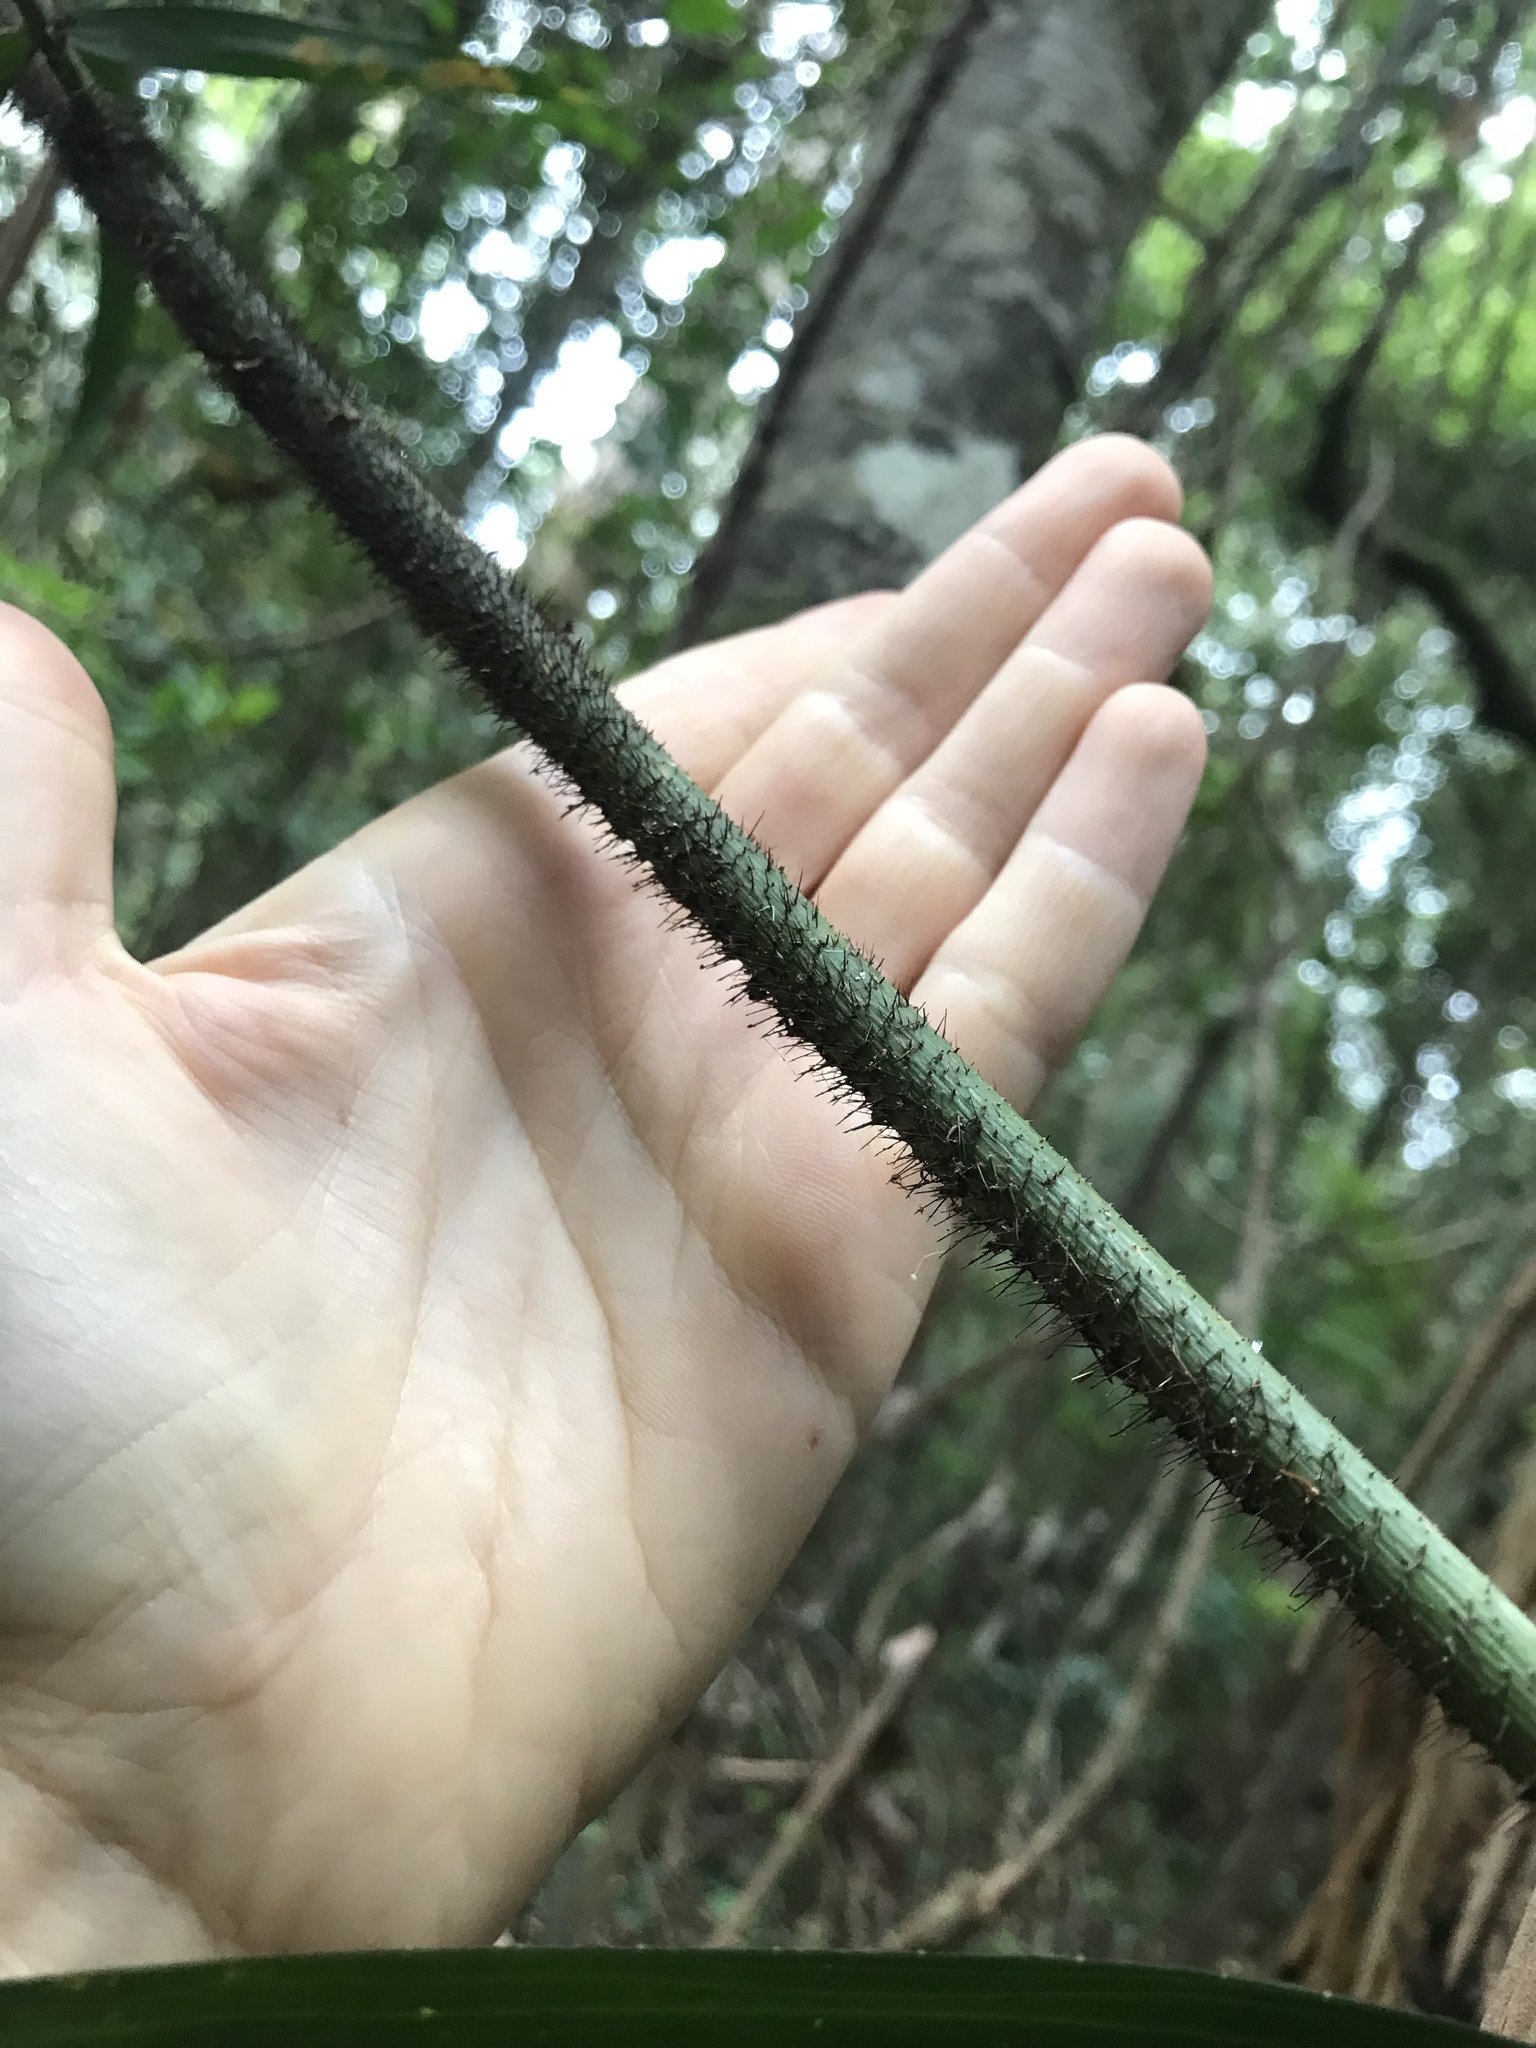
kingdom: Plantae
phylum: Tracheophyta
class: Liliopsida
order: Arecales
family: Arecaceae
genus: Calamus
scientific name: Calamus muelleri
